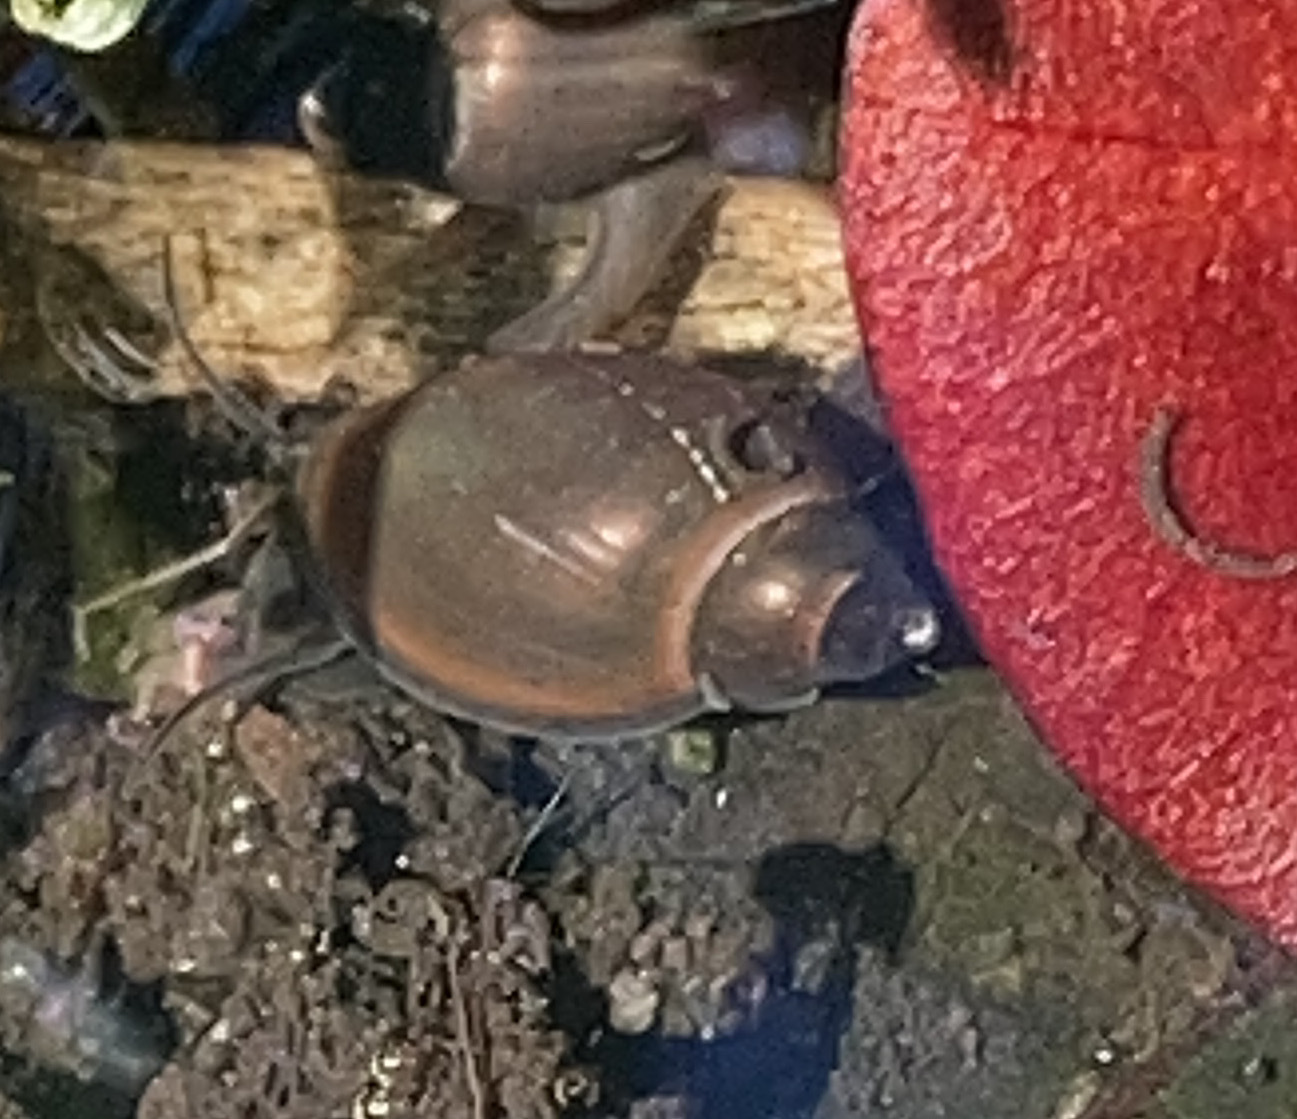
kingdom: Animalia
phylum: Mollusca
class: Gastropoda
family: Physidae
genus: Physella
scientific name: Physella acuta
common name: European physa
